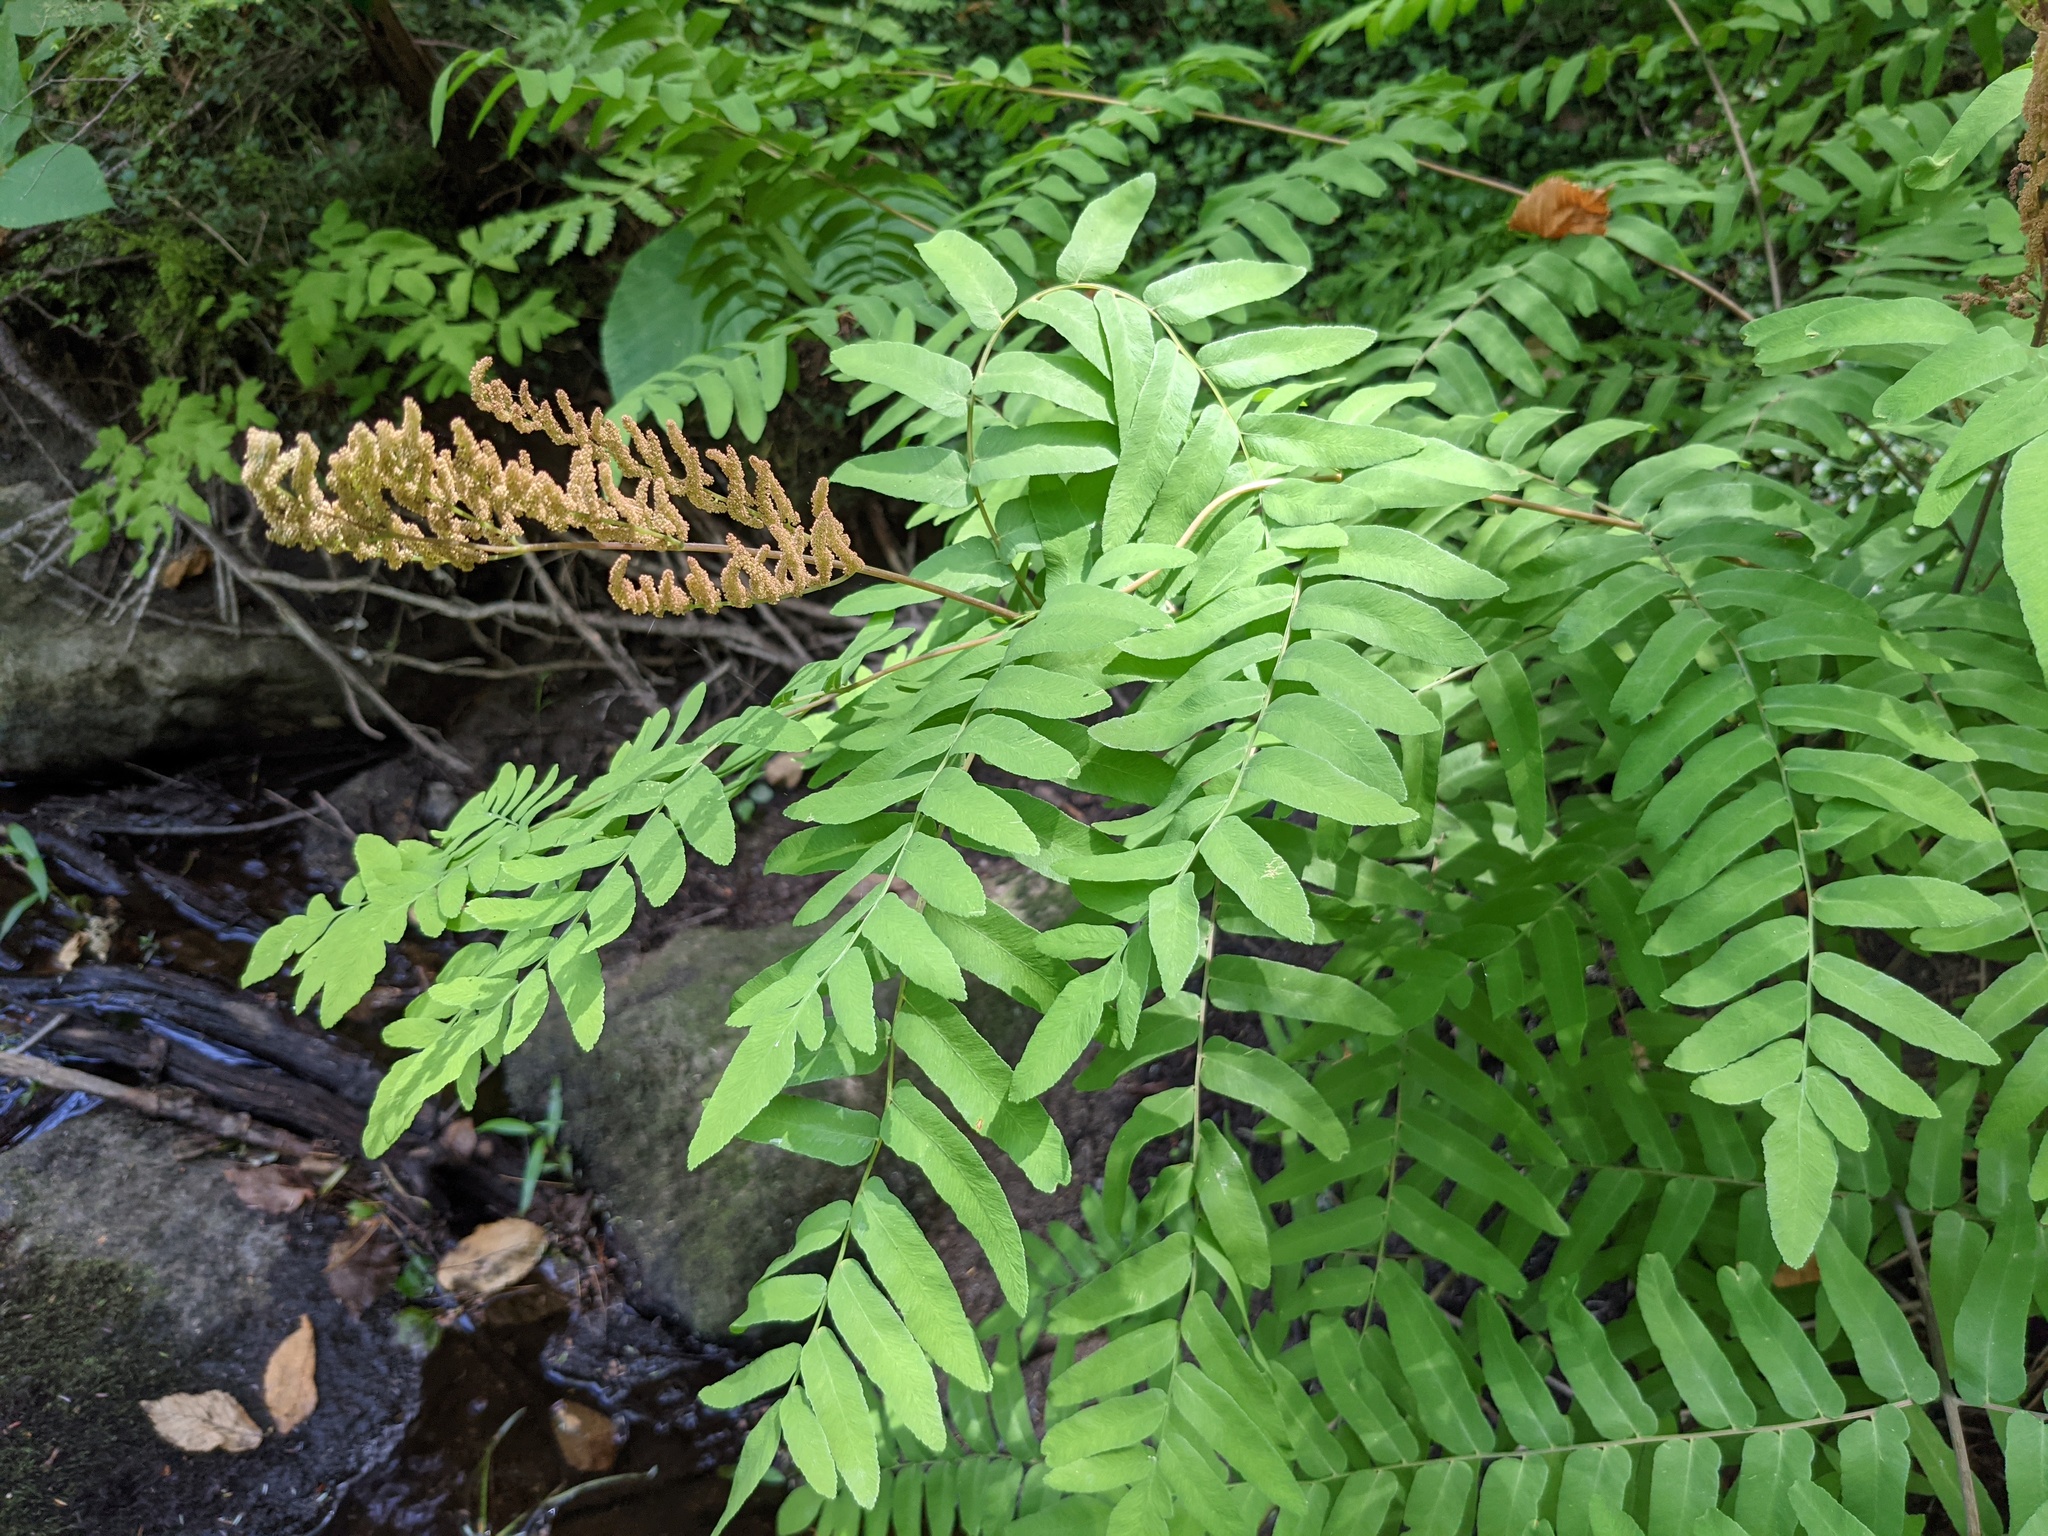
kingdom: Plantae
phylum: Tracheophyta
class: Polypodiopsida
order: Osmundales
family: Osmundaceae
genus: Osmunda
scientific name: Osmunda spectabilis
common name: American royal fern
